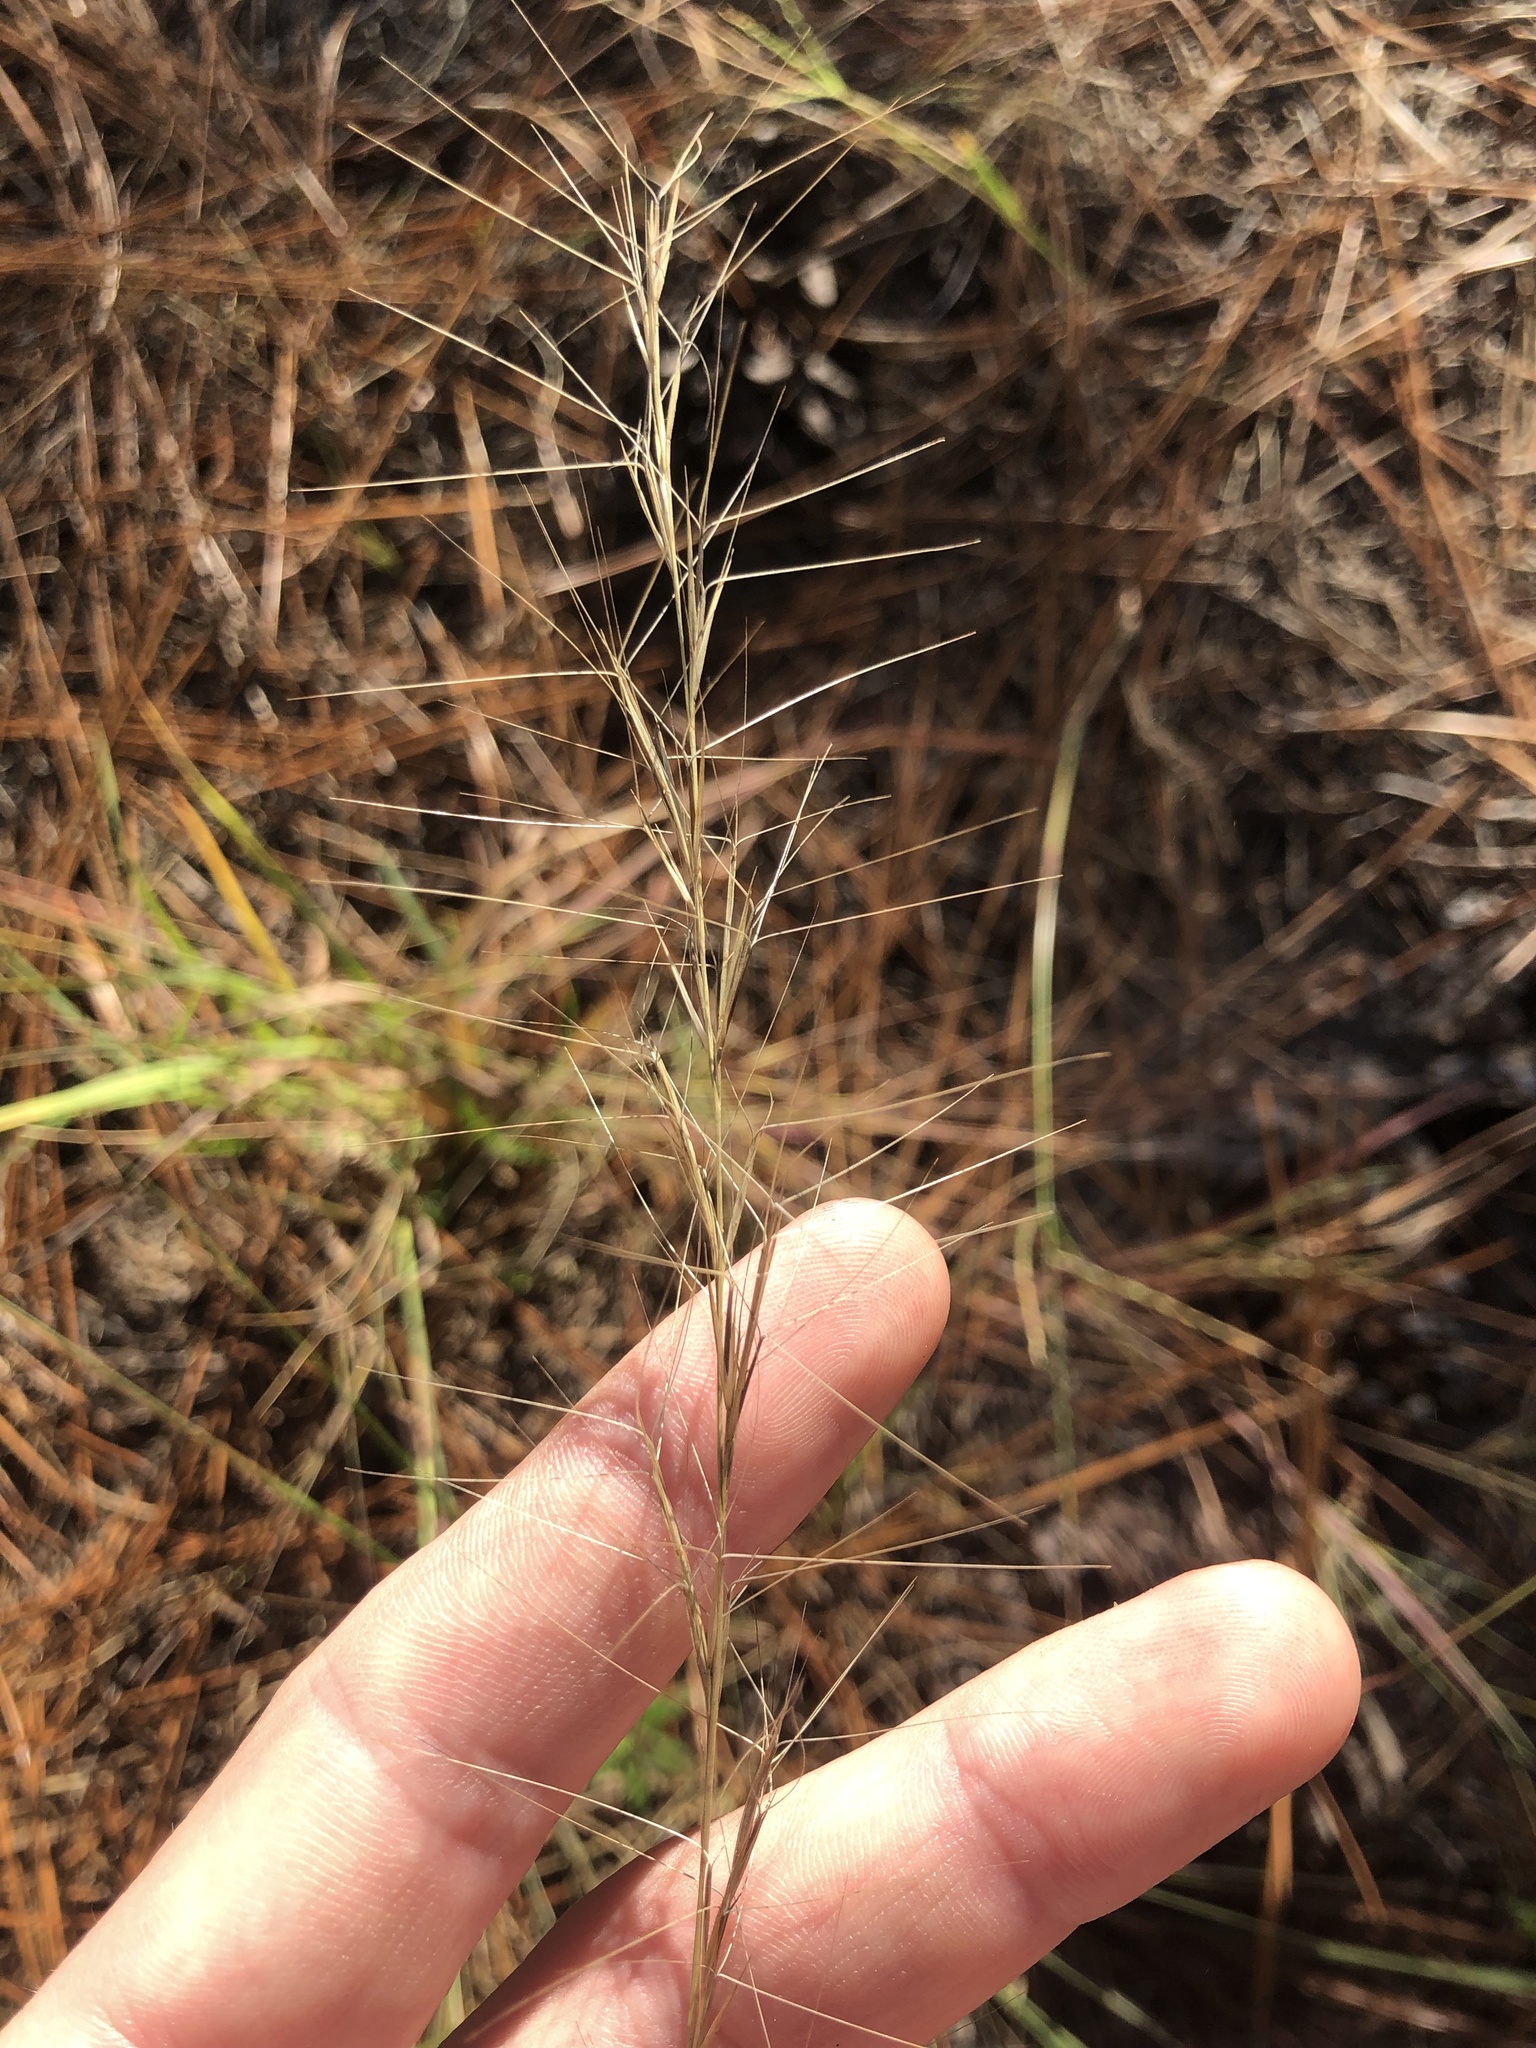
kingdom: Plantae
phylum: Tracheophyta
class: Liliopsida
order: Poales
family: Poaceae
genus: Aristida
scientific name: Aristida purpurascens
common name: Arrow-feather
